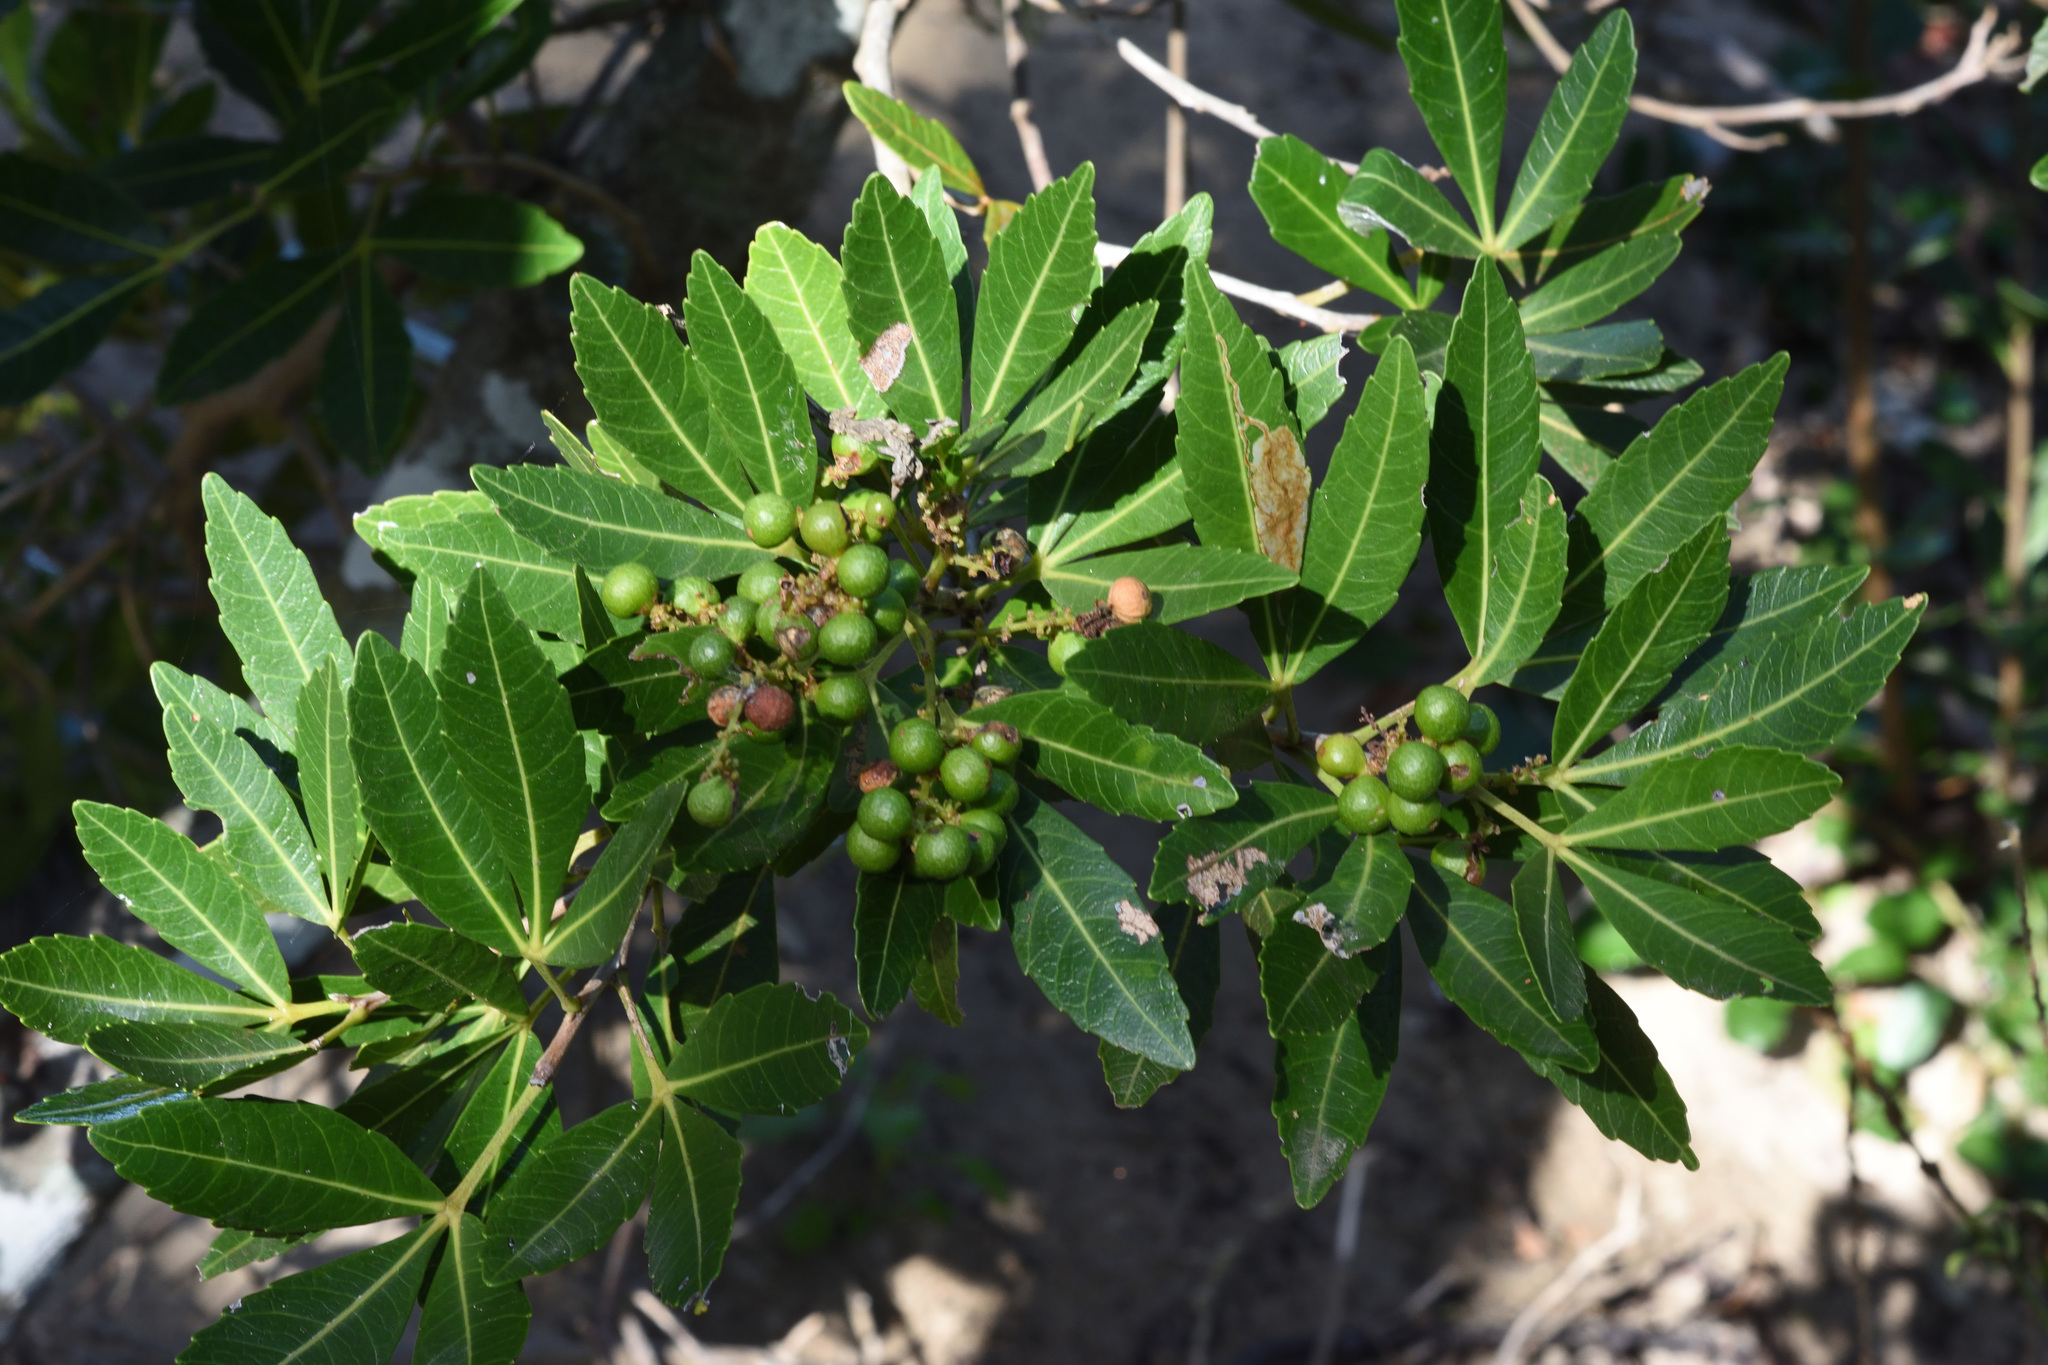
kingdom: Plantae
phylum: Tracheophyta
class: Magnoliopsida
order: Sapindales
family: Sapindaceae
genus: Allophylus
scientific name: Allophylus natalensis
